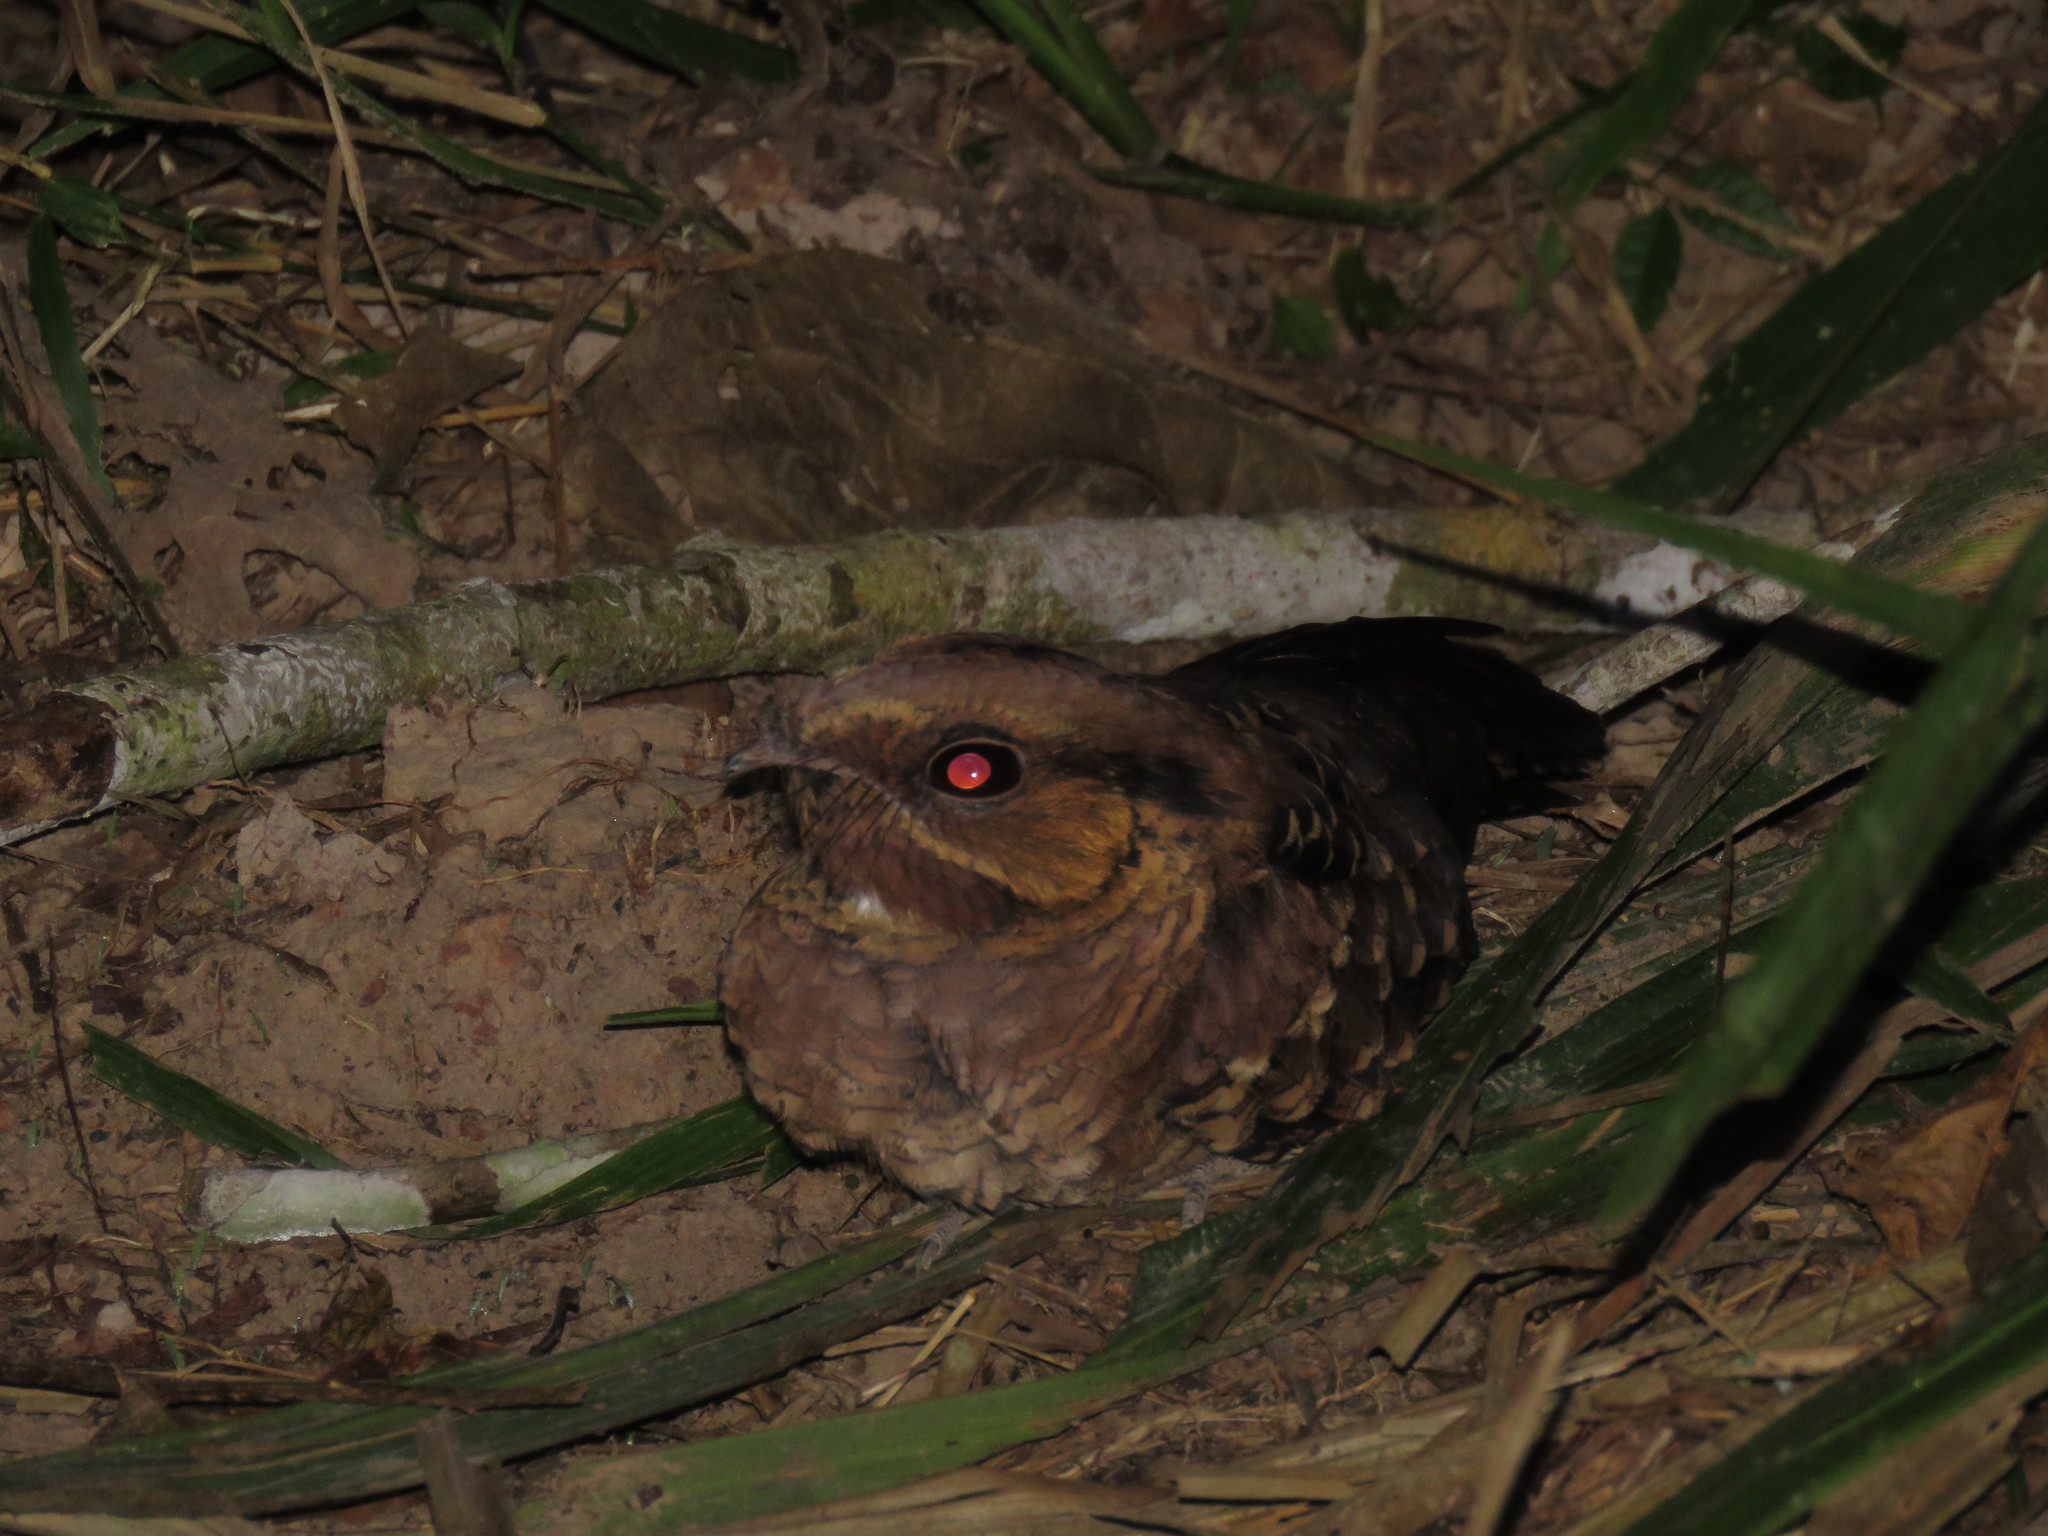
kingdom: Animalia
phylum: Chordata
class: Aves
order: Caprimulgiformes
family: Caprimulgidae
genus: Nyctidromus
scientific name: Nyctidromus albicollis
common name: Pauraque
